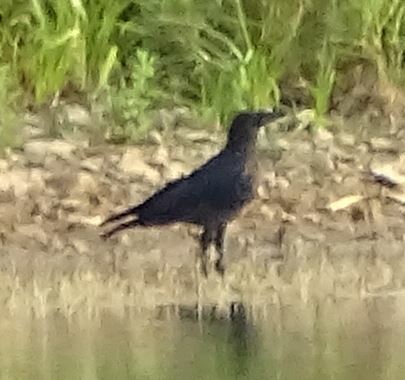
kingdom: Animalia
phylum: Chordata
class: Aves
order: Passeriformes
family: Corvidae
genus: Corvus
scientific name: Corvus corone
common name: Carrion crow
